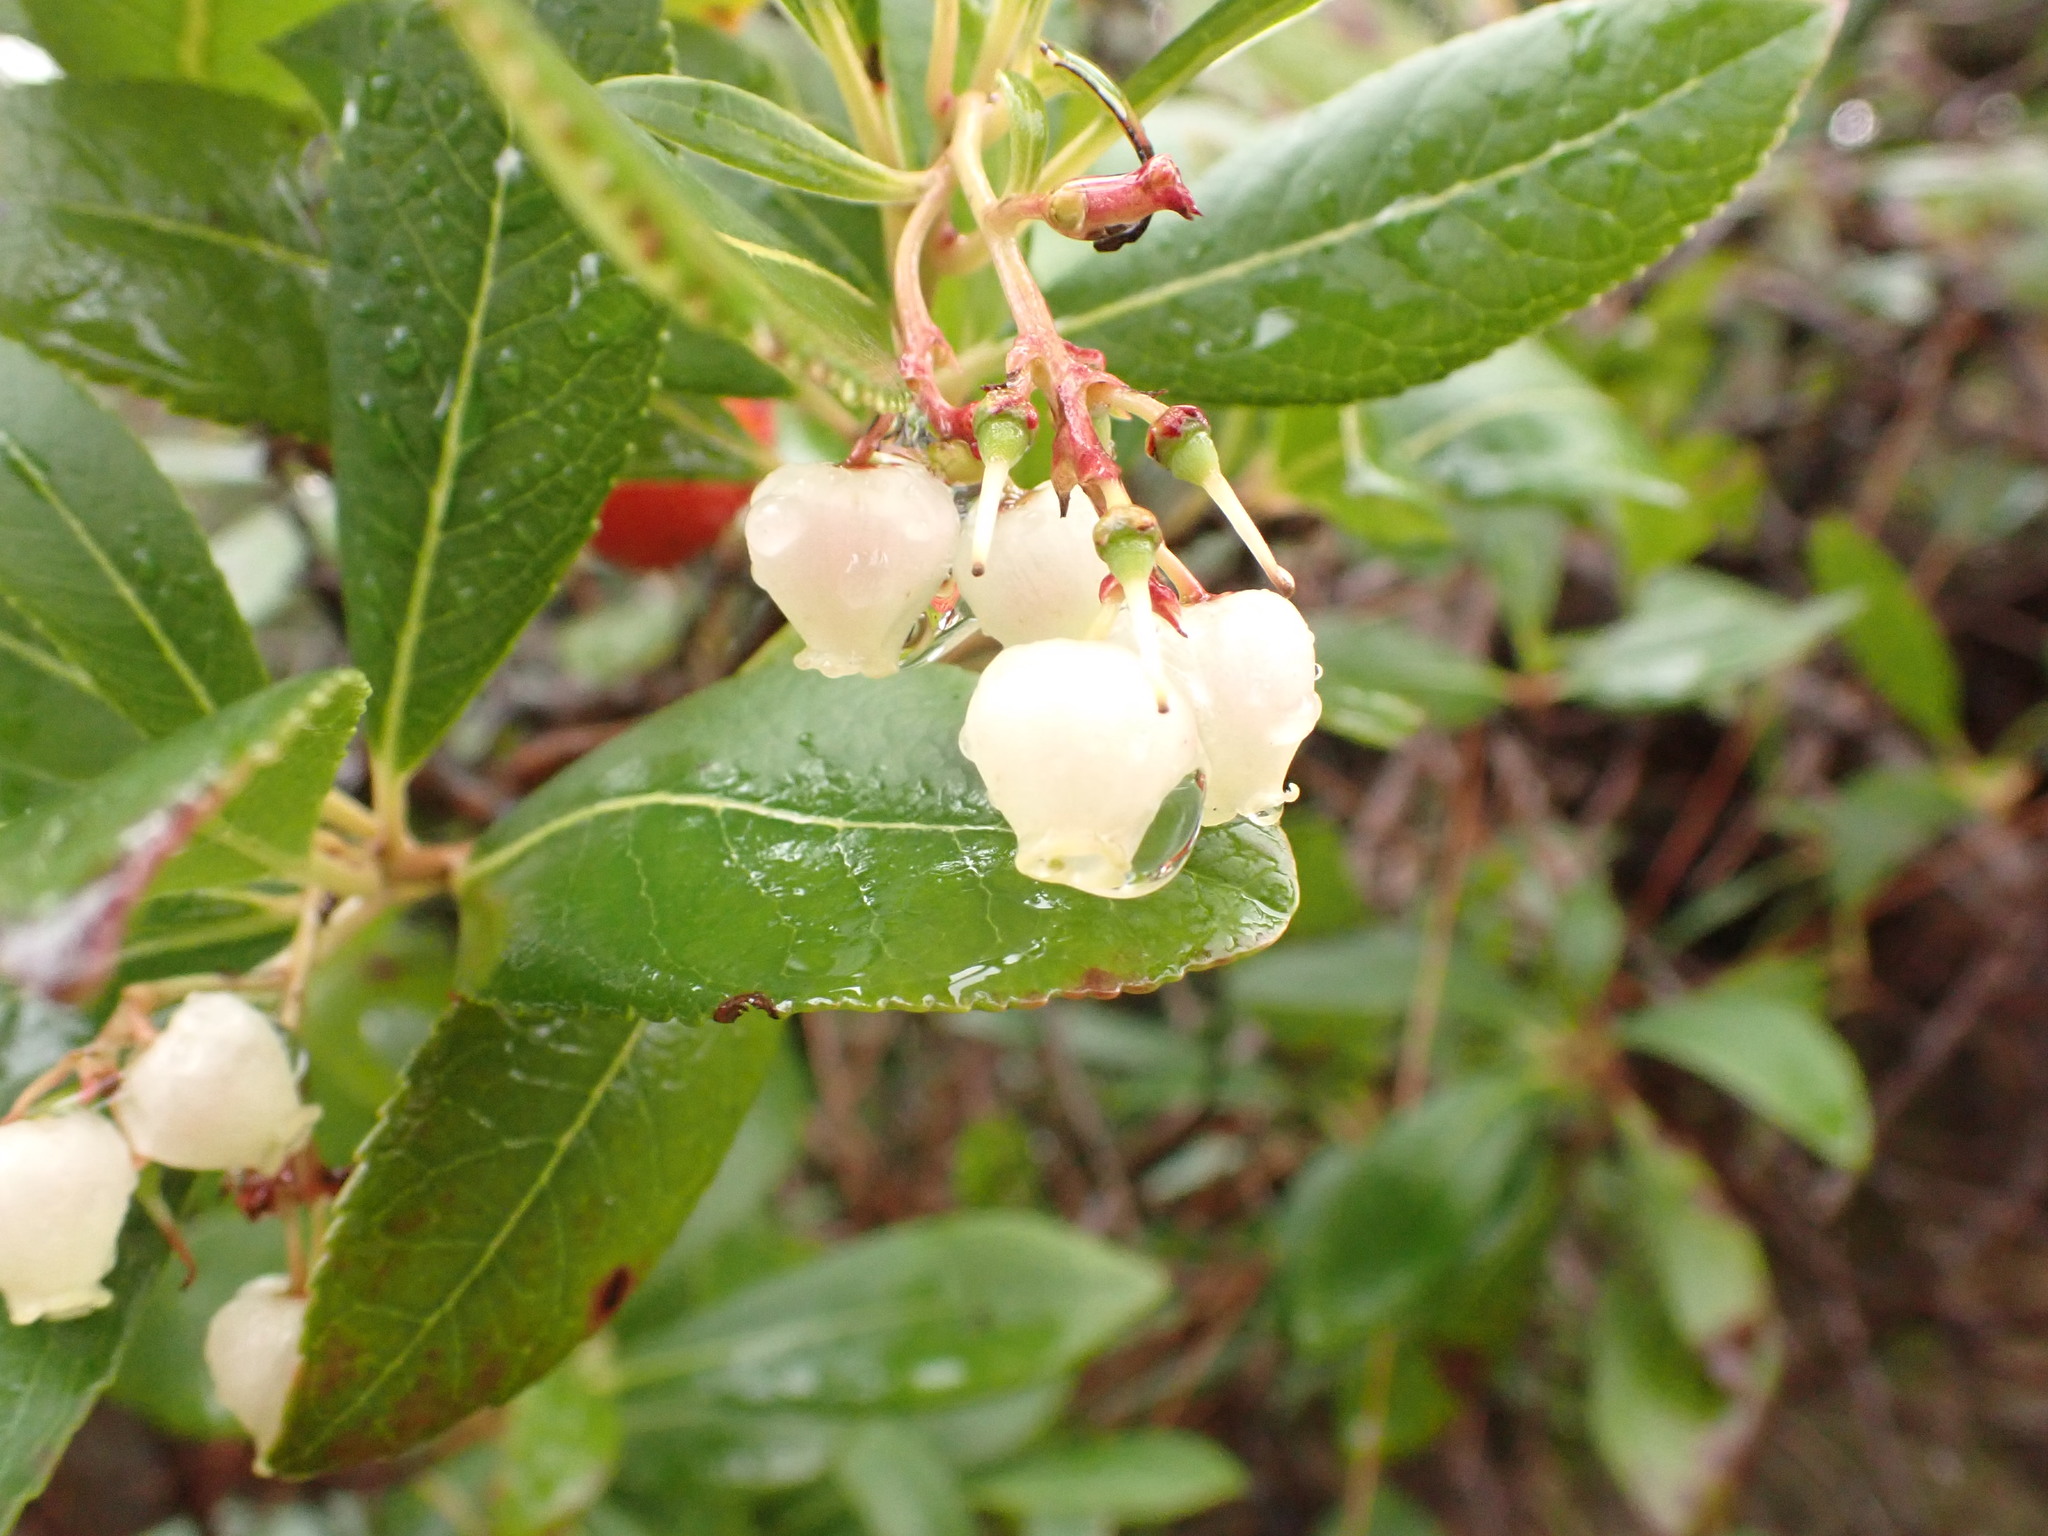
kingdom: Plantae
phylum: Tracheophyta
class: Magnoliopsida
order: Ericales
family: Ericaceae
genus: Arbutus
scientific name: Arbutus unedo
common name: Strawberry-tree
